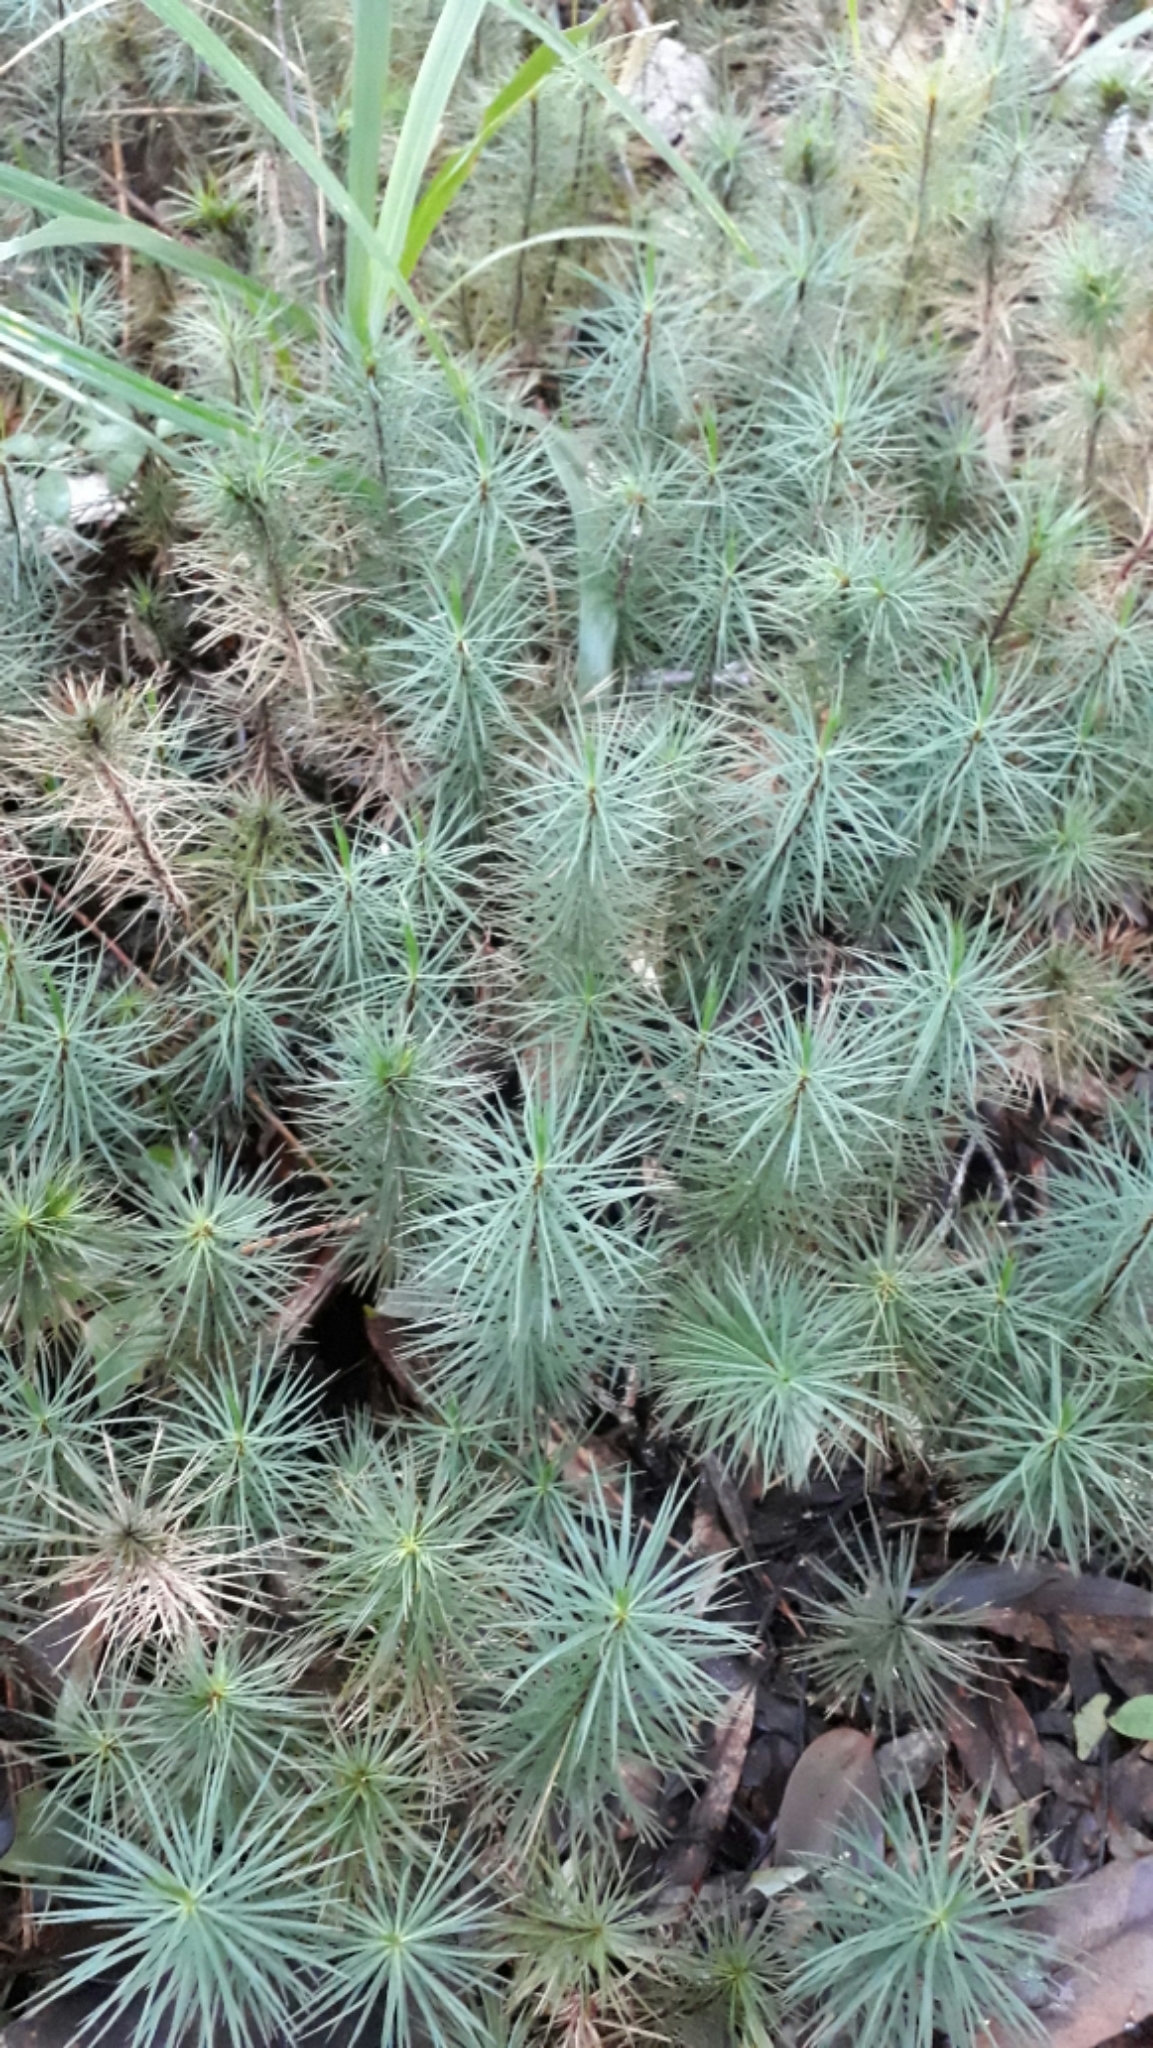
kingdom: Plantae
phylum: Bryophyta
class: Polytrichopsida
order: Polytrichales
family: Polytrichaceae
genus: Dawsonia
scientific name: Dawsonia superba
